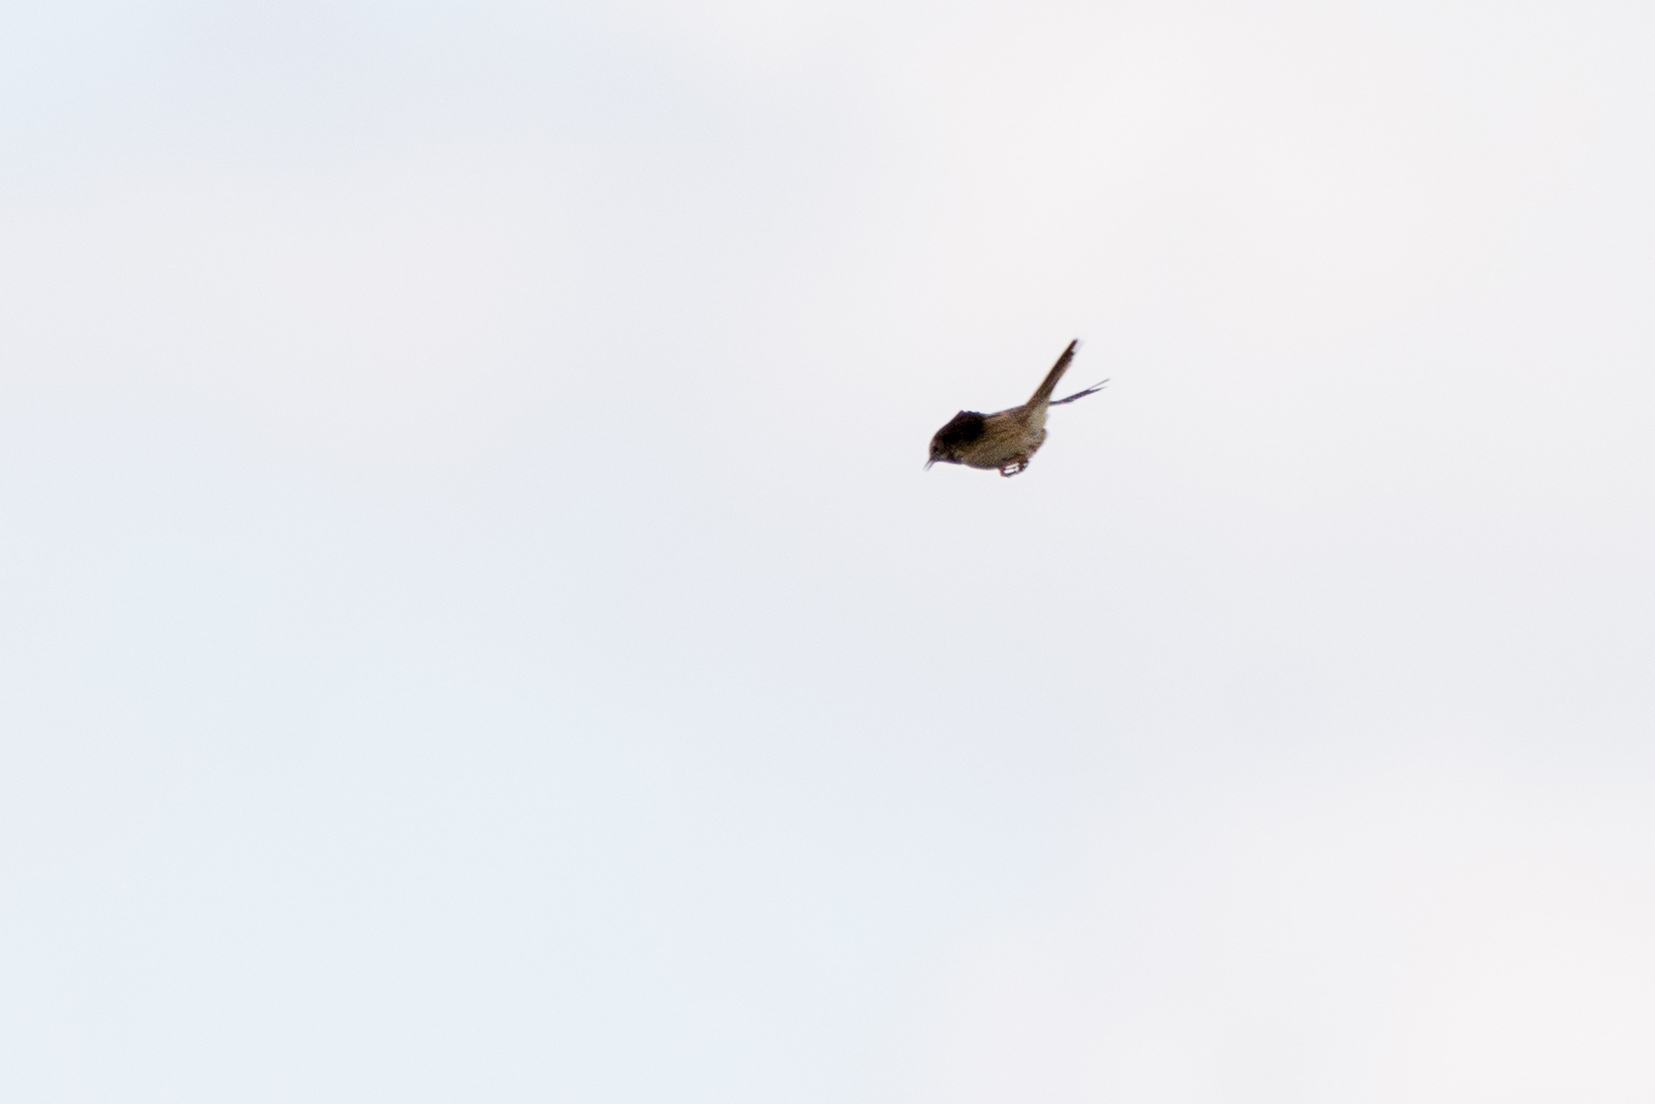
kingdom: Animalia
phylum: Chordata
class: Aves
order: Passeriformes
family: Motacillidae
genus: Anthus
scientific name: Anthus trivialis
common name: Tree pipit
